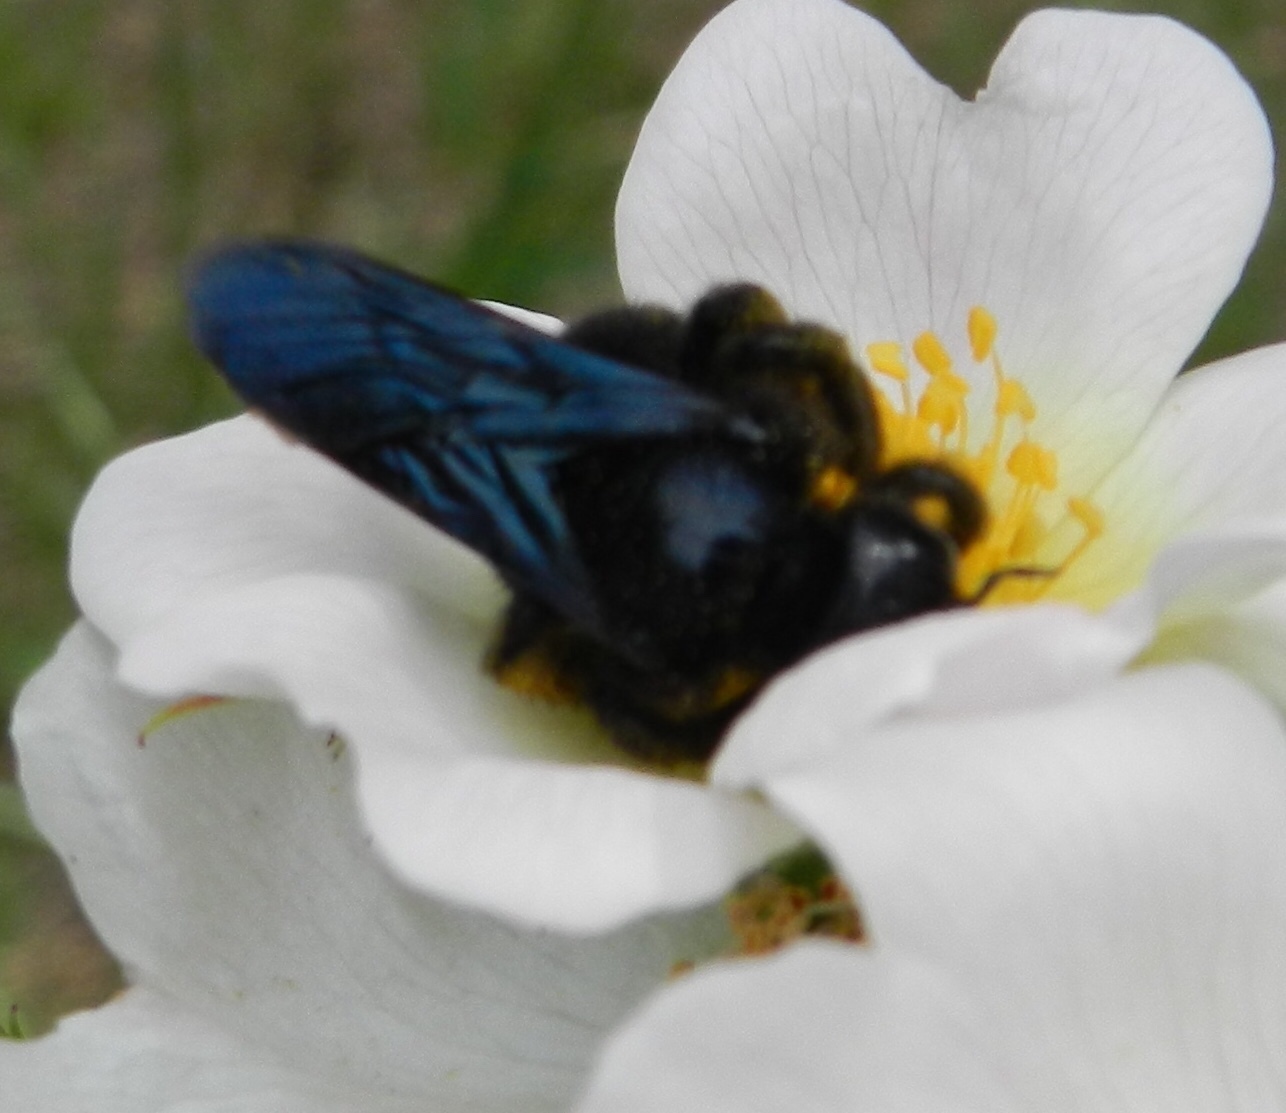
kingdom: Animalia
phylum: Arthropoda
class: Insecta
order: Hymenoptera
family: Apidae
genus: Xylocopa
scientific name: Xylocopa violacea
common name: Violet carpenter bee
